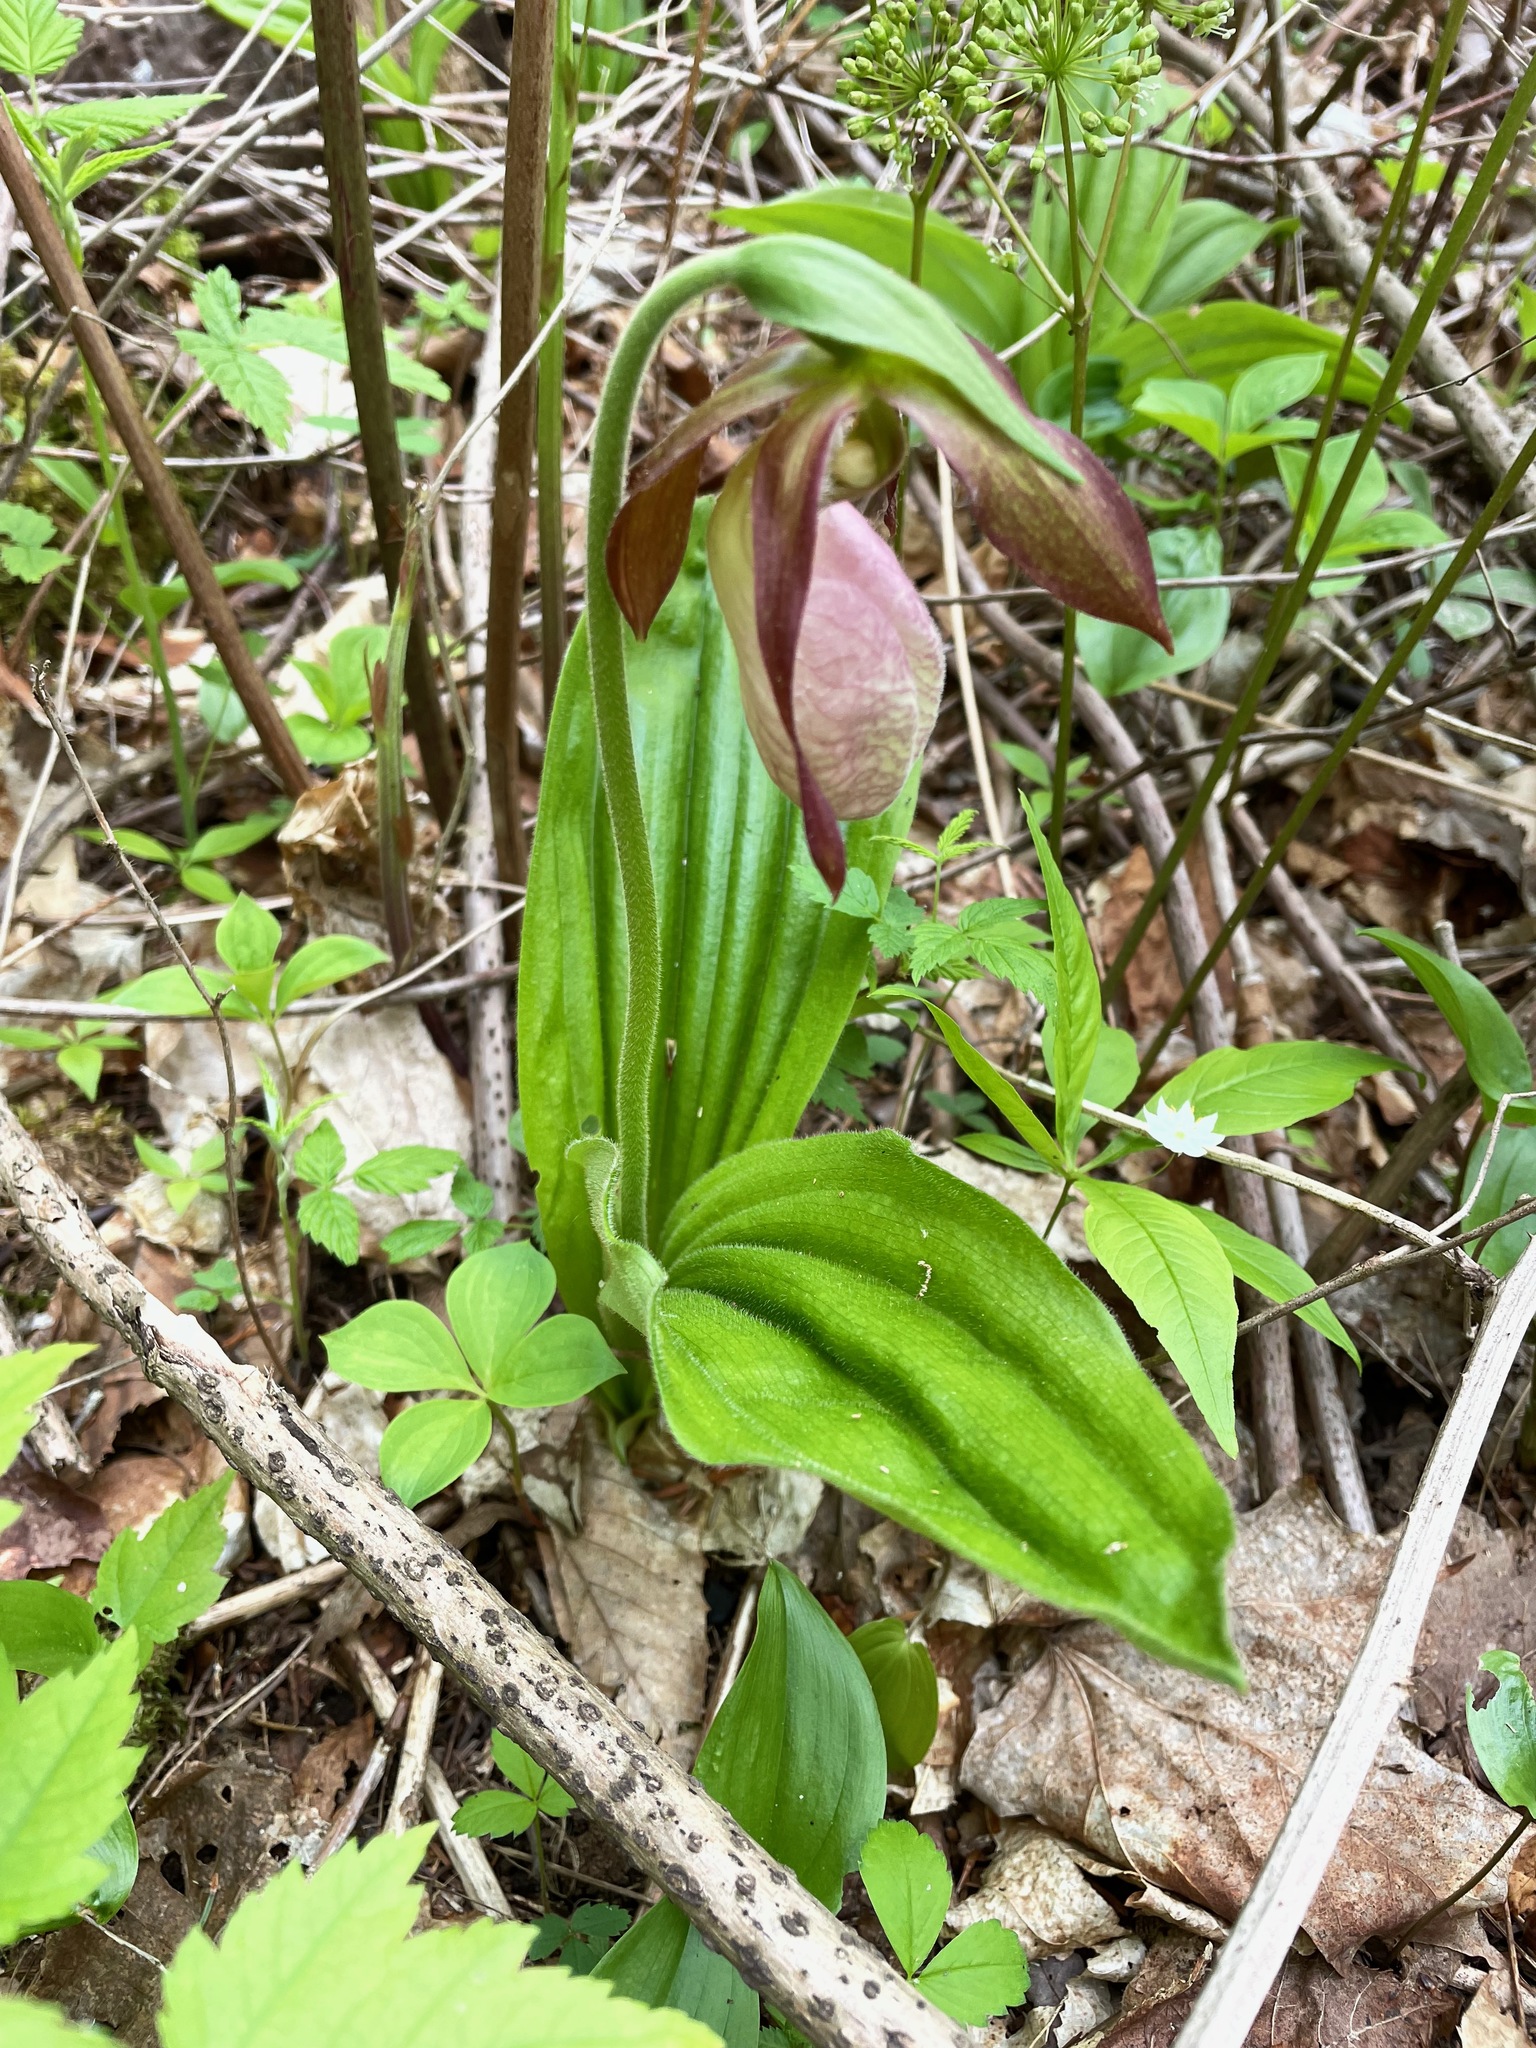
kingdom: Plantae
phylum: Tracheophyta
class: Liliopsida
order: Asparagales
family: Orchidaceae
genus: Cypripedium
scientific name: Cypripedium acaule
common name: Pink lady's-slipper
